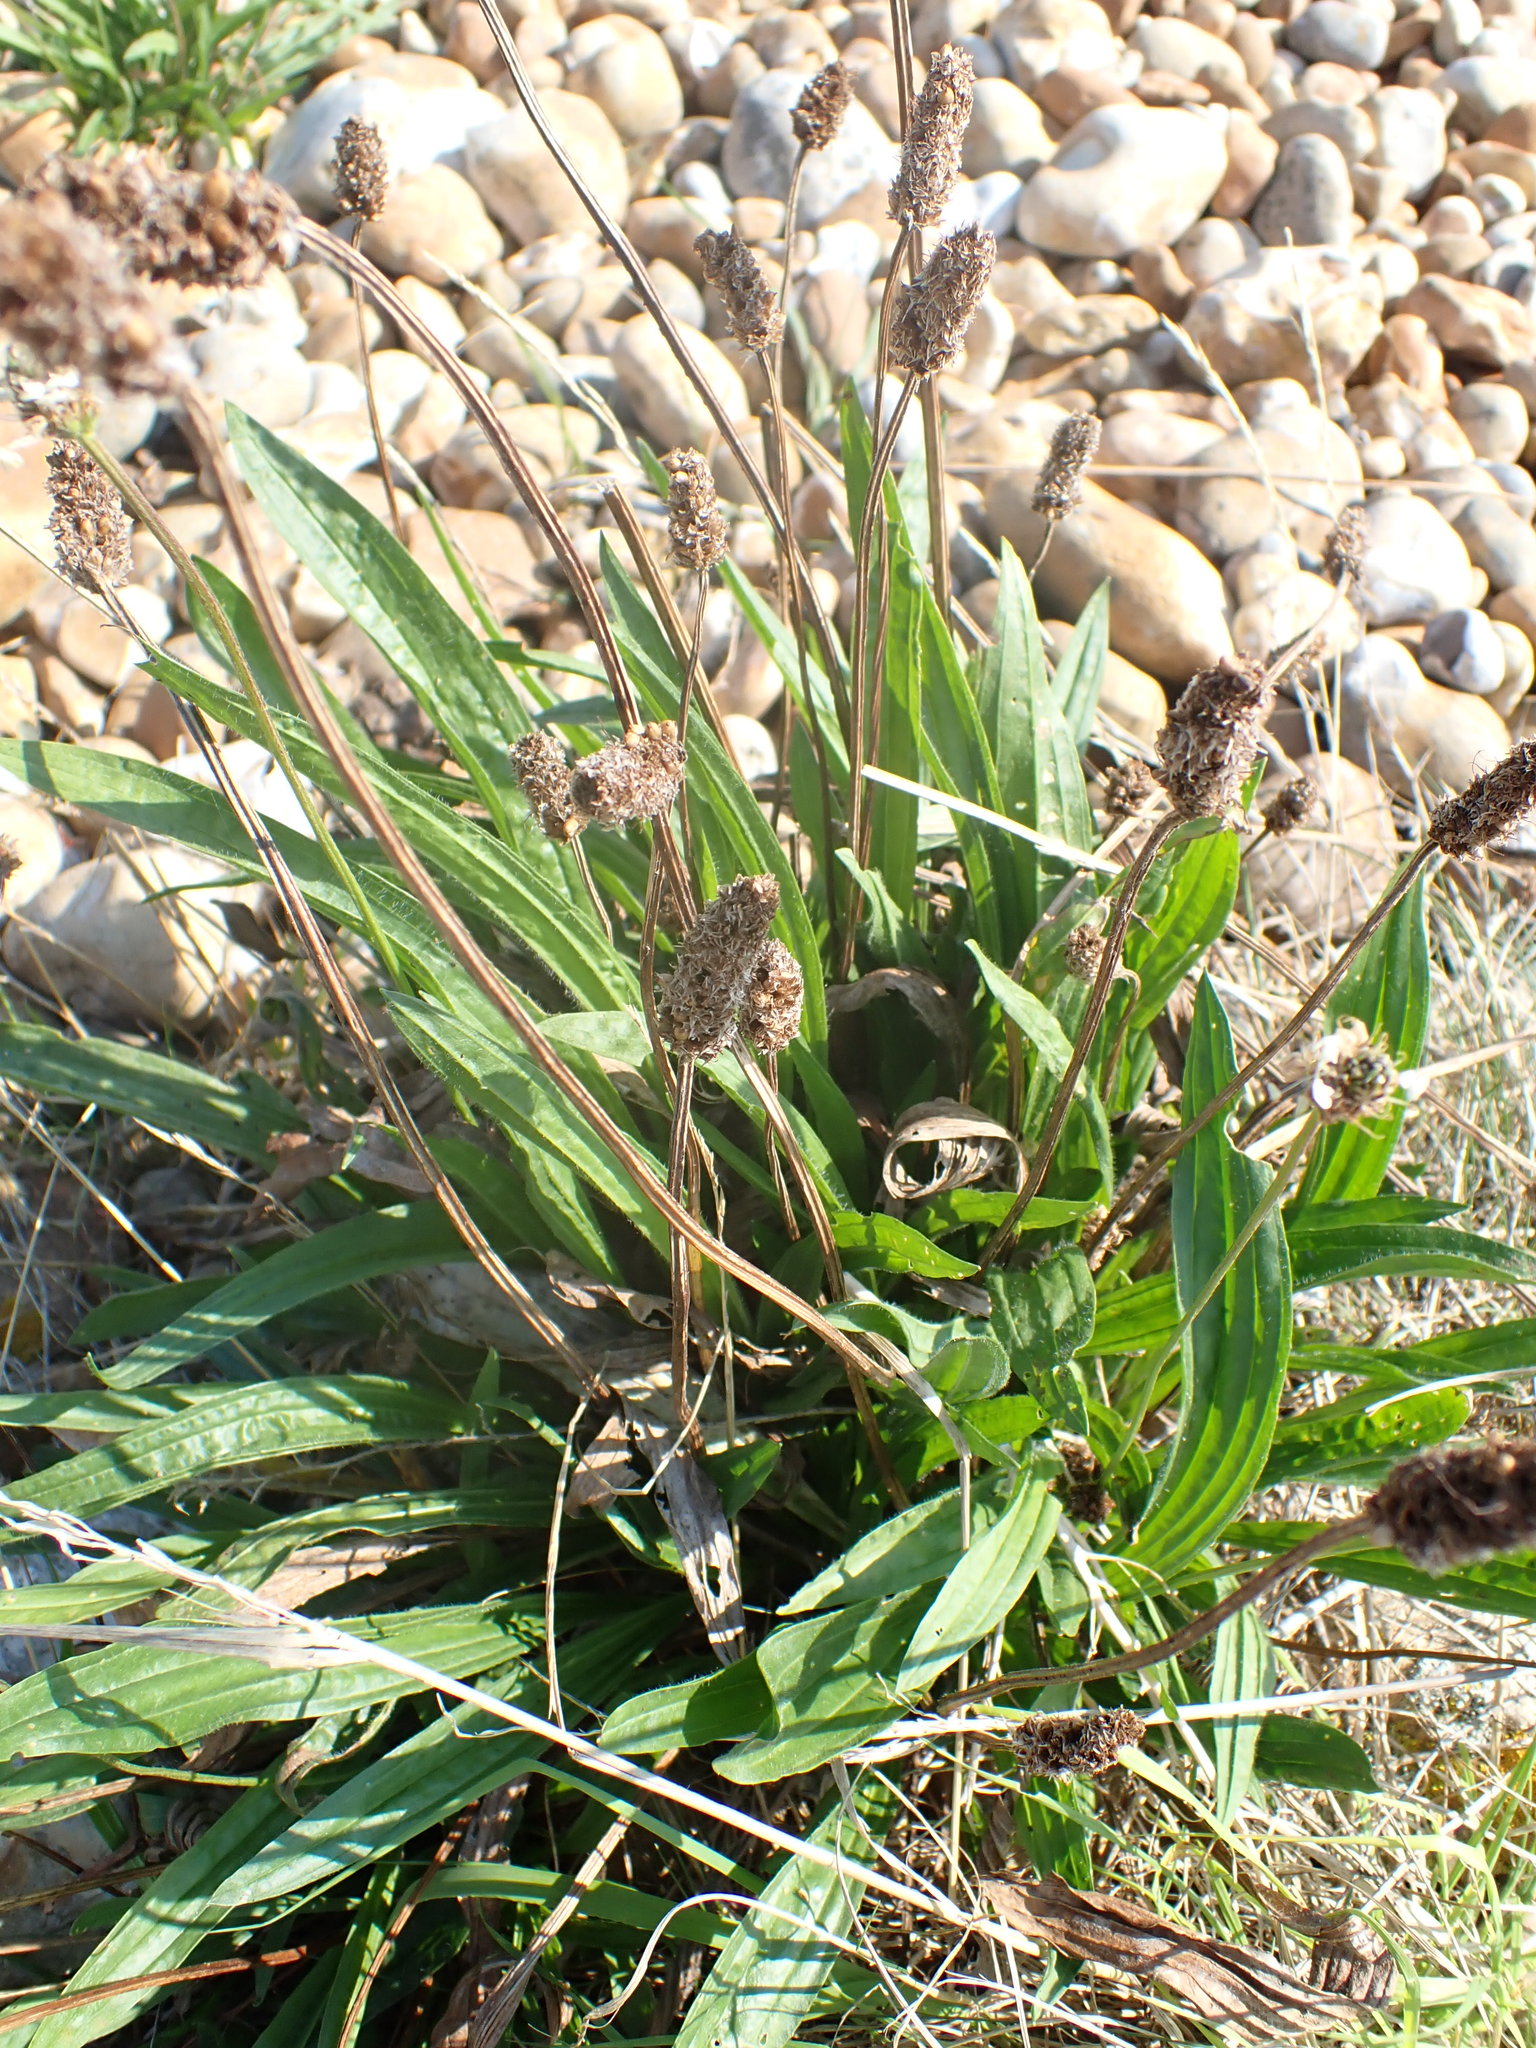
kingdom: Plantae
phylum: Tracheophyta
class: Magnoliopsida
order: Lamiales
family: Plantaginaceae
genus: Plantago
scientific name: Plantago lanceolata
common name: Ribwort plantain
